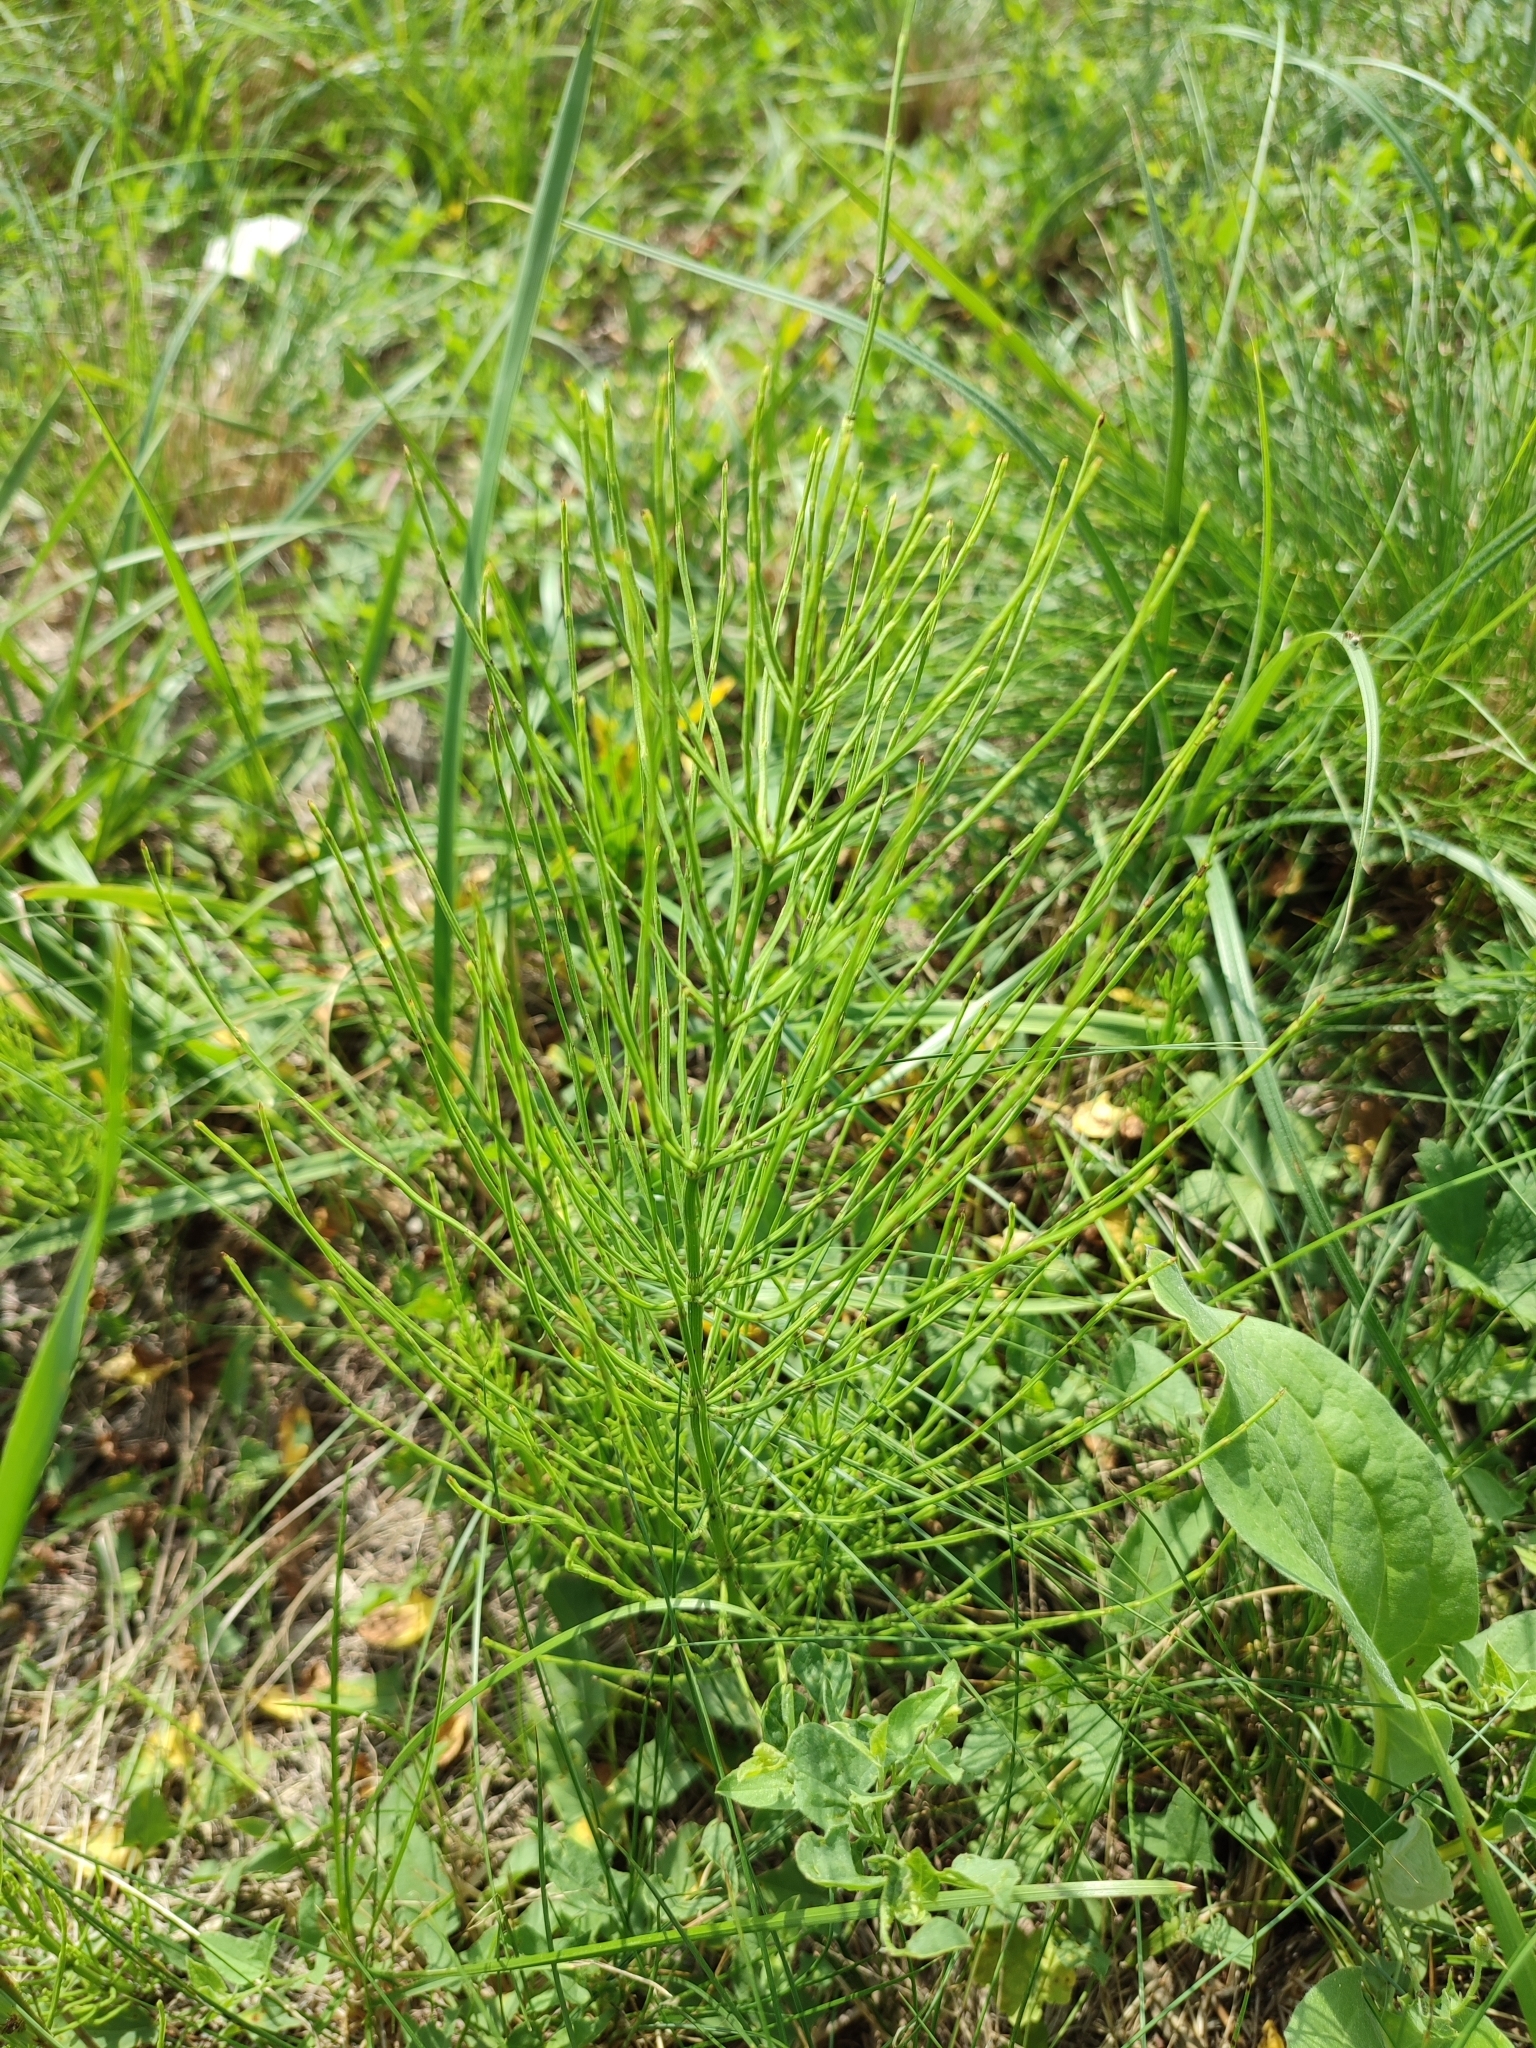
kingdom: Plantae
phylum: Tracheophyta
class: Polypodiopsida
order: Equisetales
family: Equisetaceae
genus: Equisetum
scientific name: Equisetum arvense
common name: Field horsetail
